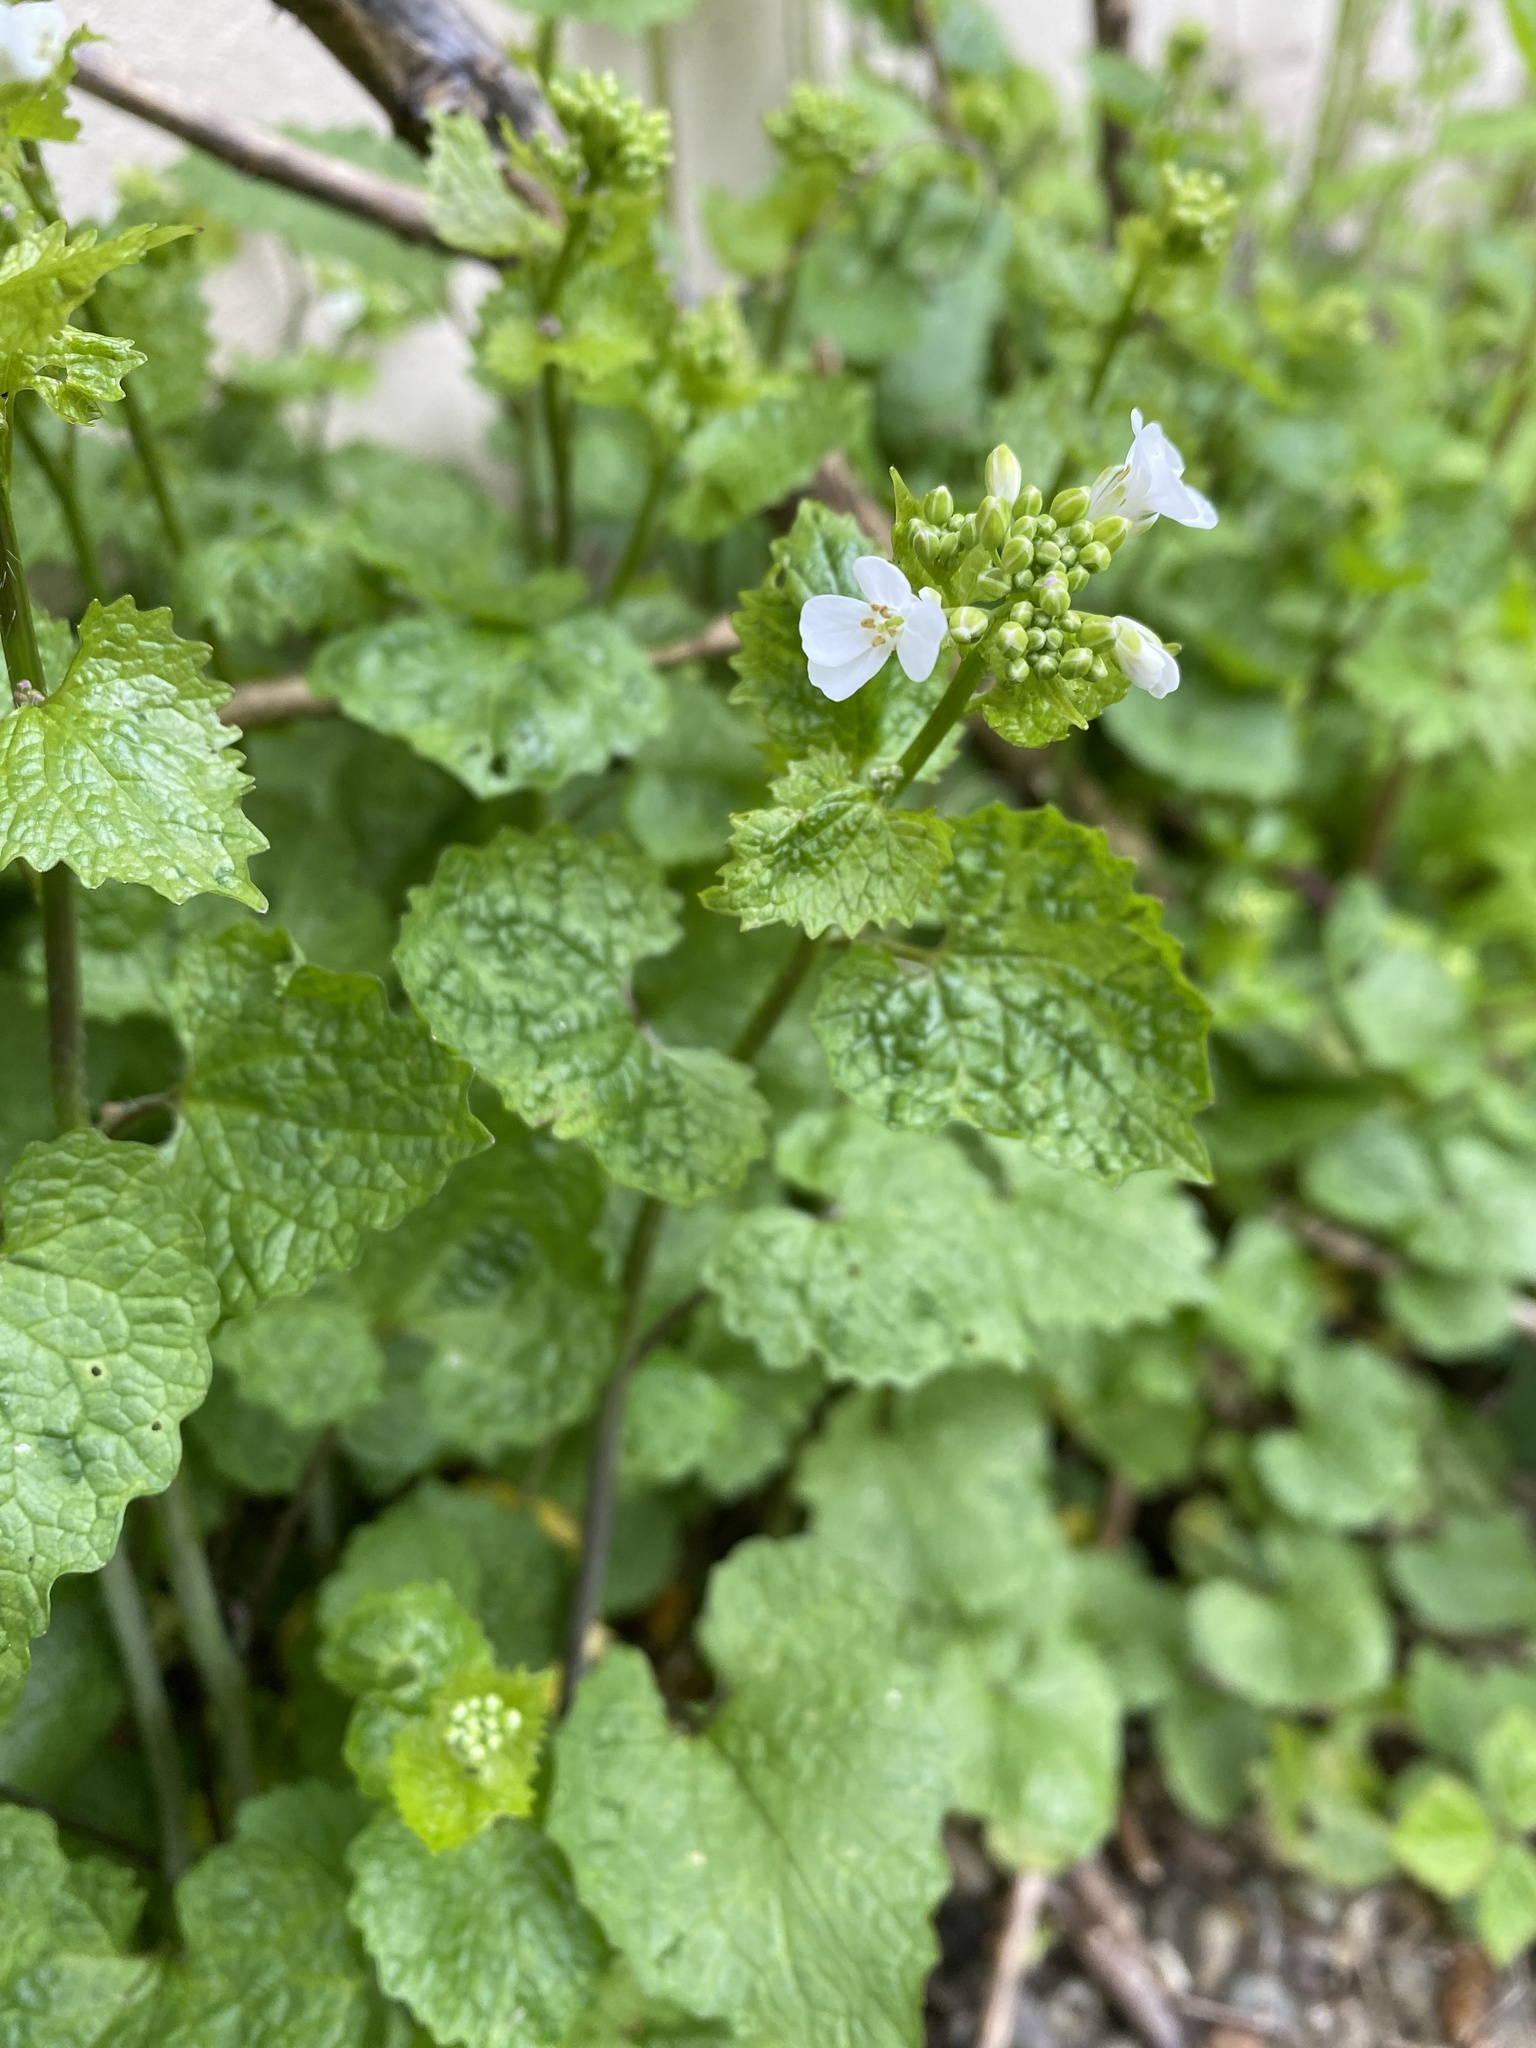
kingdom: Plantae
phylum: Tracheophyta
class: Magnoliopsida
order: Brassicales
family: Brassicaceae
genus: Alliaria
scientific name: Alliaria petiolata
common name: Garlic mustard
